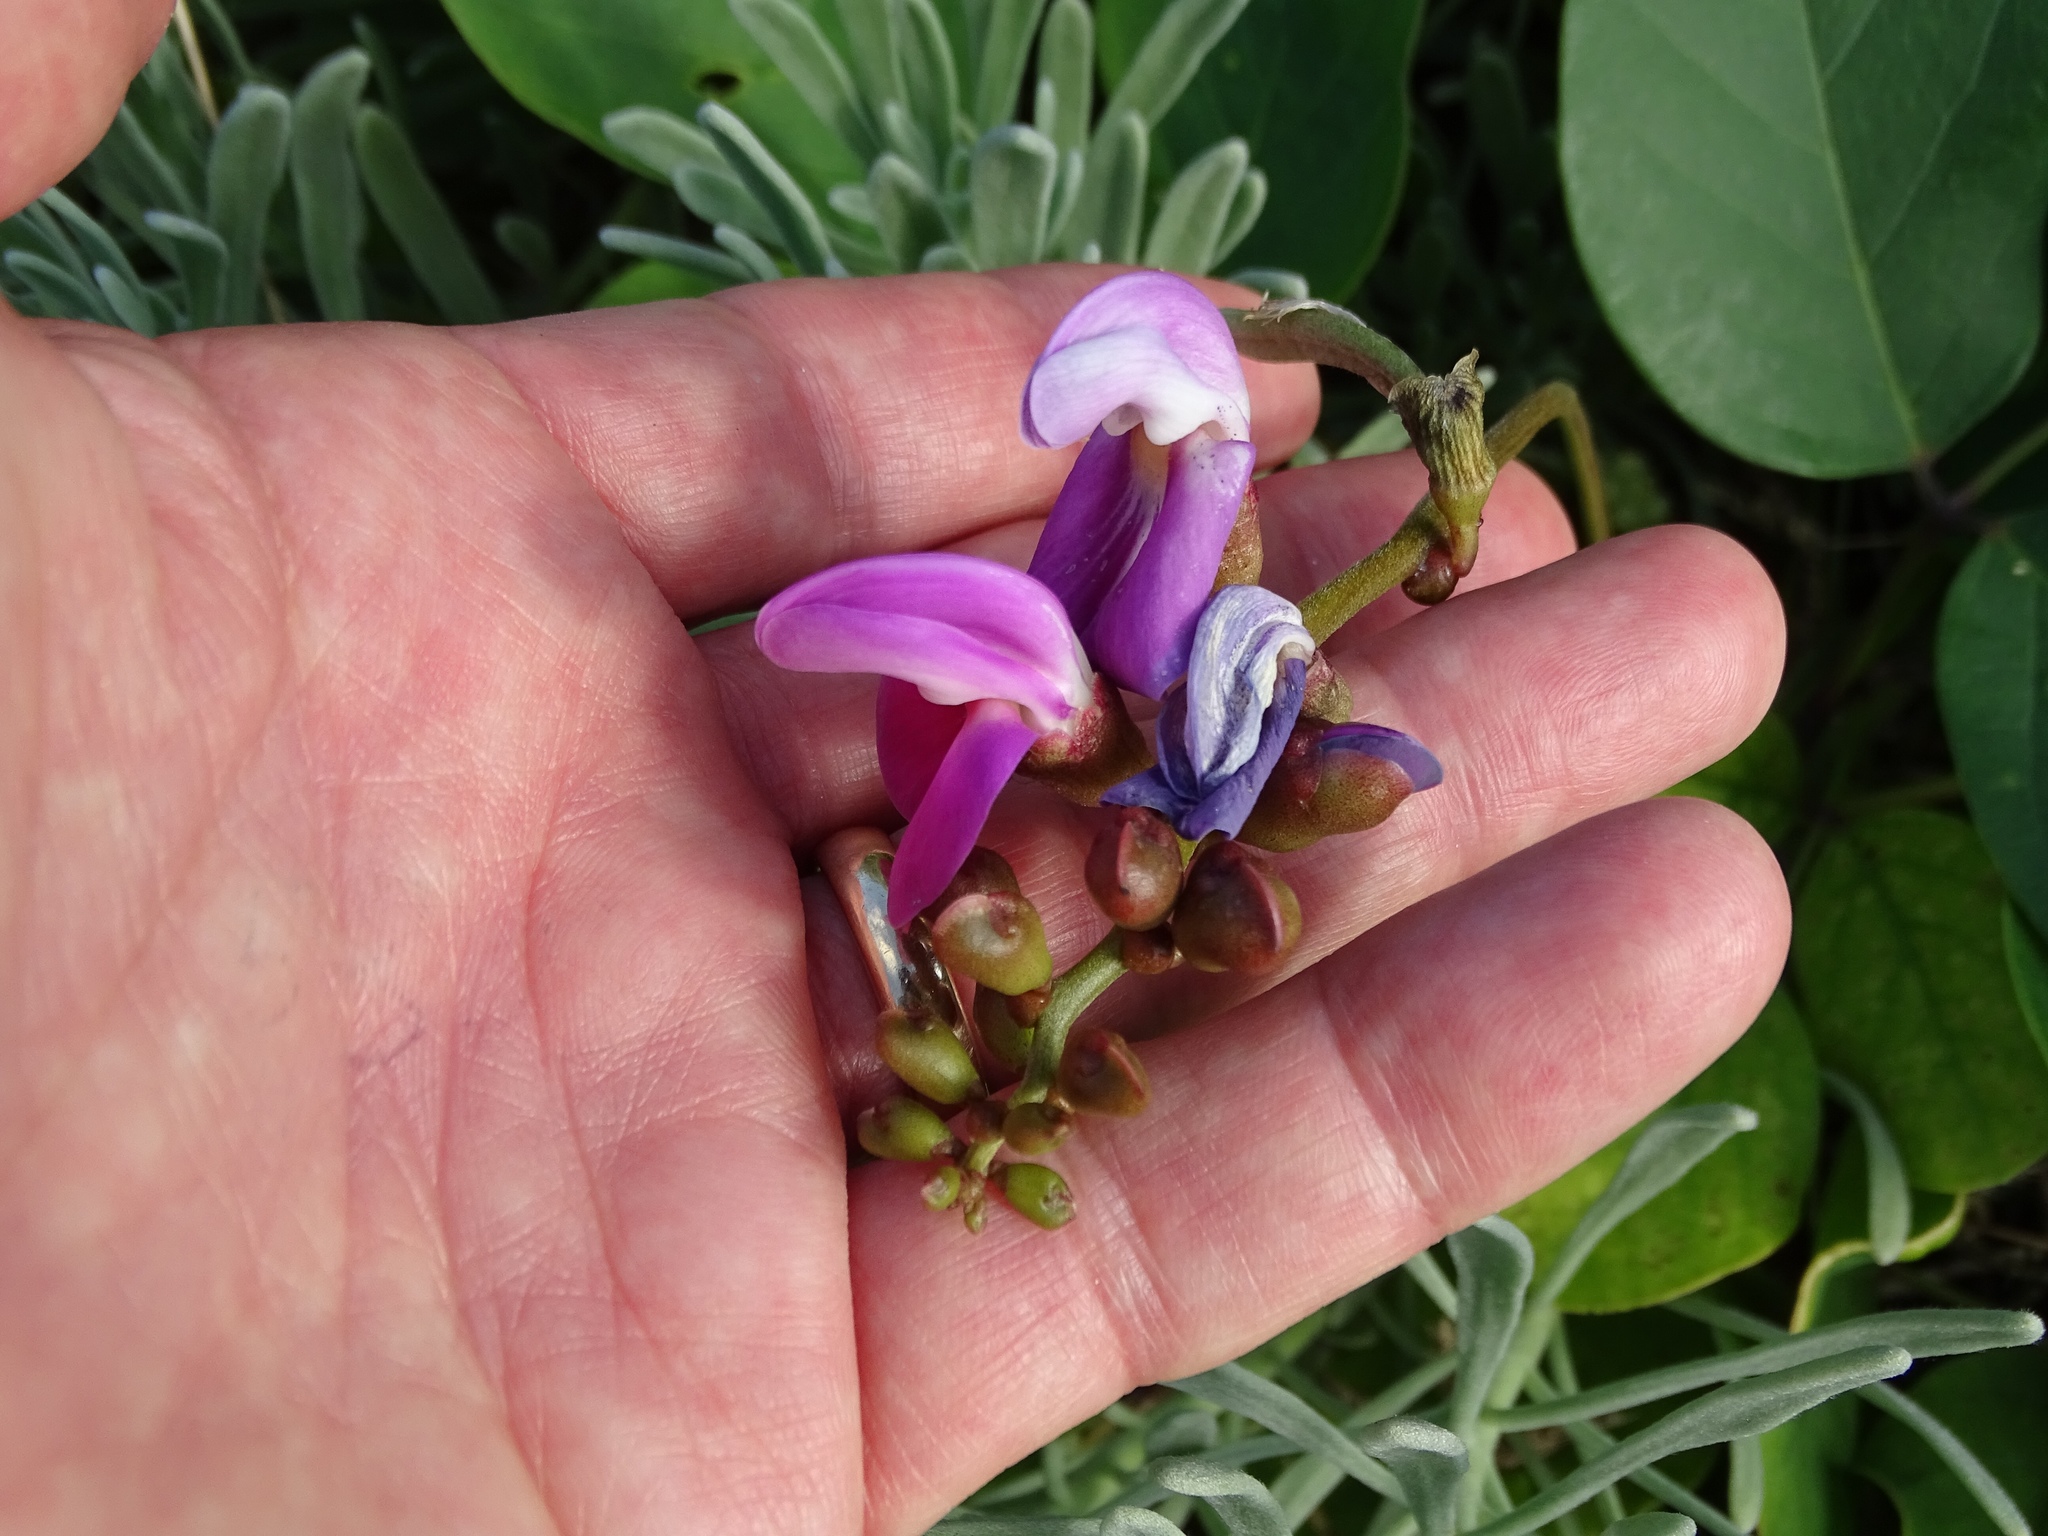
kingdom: Plantae
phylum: Tracheophyta
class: Magnoliopsida
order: Fabales
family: Fabaceae
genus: Canavalia
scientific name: Canavalia rosea
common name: Beach-bean
